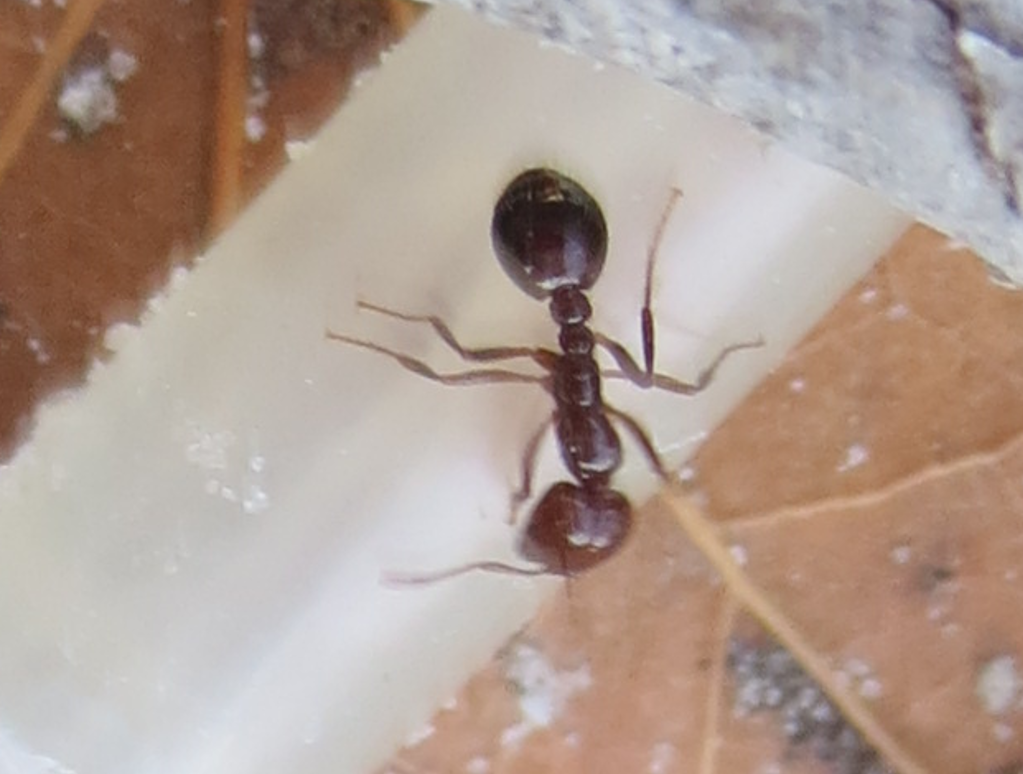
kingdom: Animalia
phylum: Arthropoda
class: Insecta
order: Hymenoptera
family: Formicidae
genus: Solenopsis
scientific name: Solenopsis invicta
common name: Red imported fire ant
